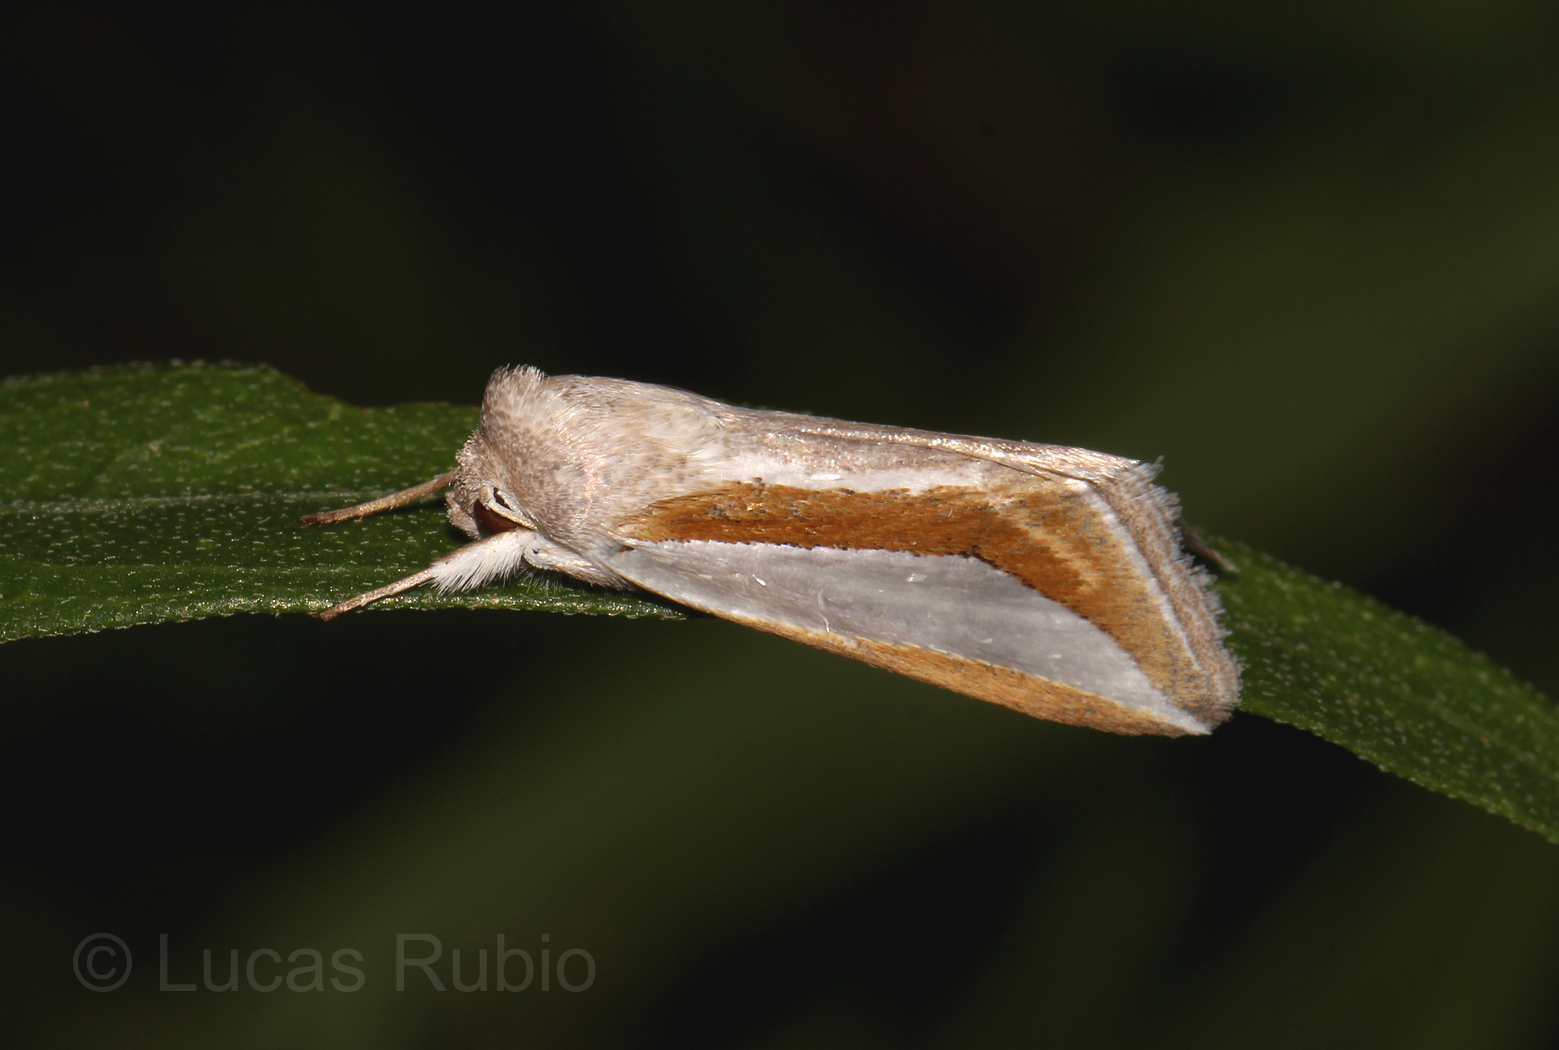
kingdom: Animalia
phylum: Arthropoda
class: Insecta
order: Lepidoptera
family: Noctuidae
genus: Cucullia
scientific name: Cucullia argyrina
